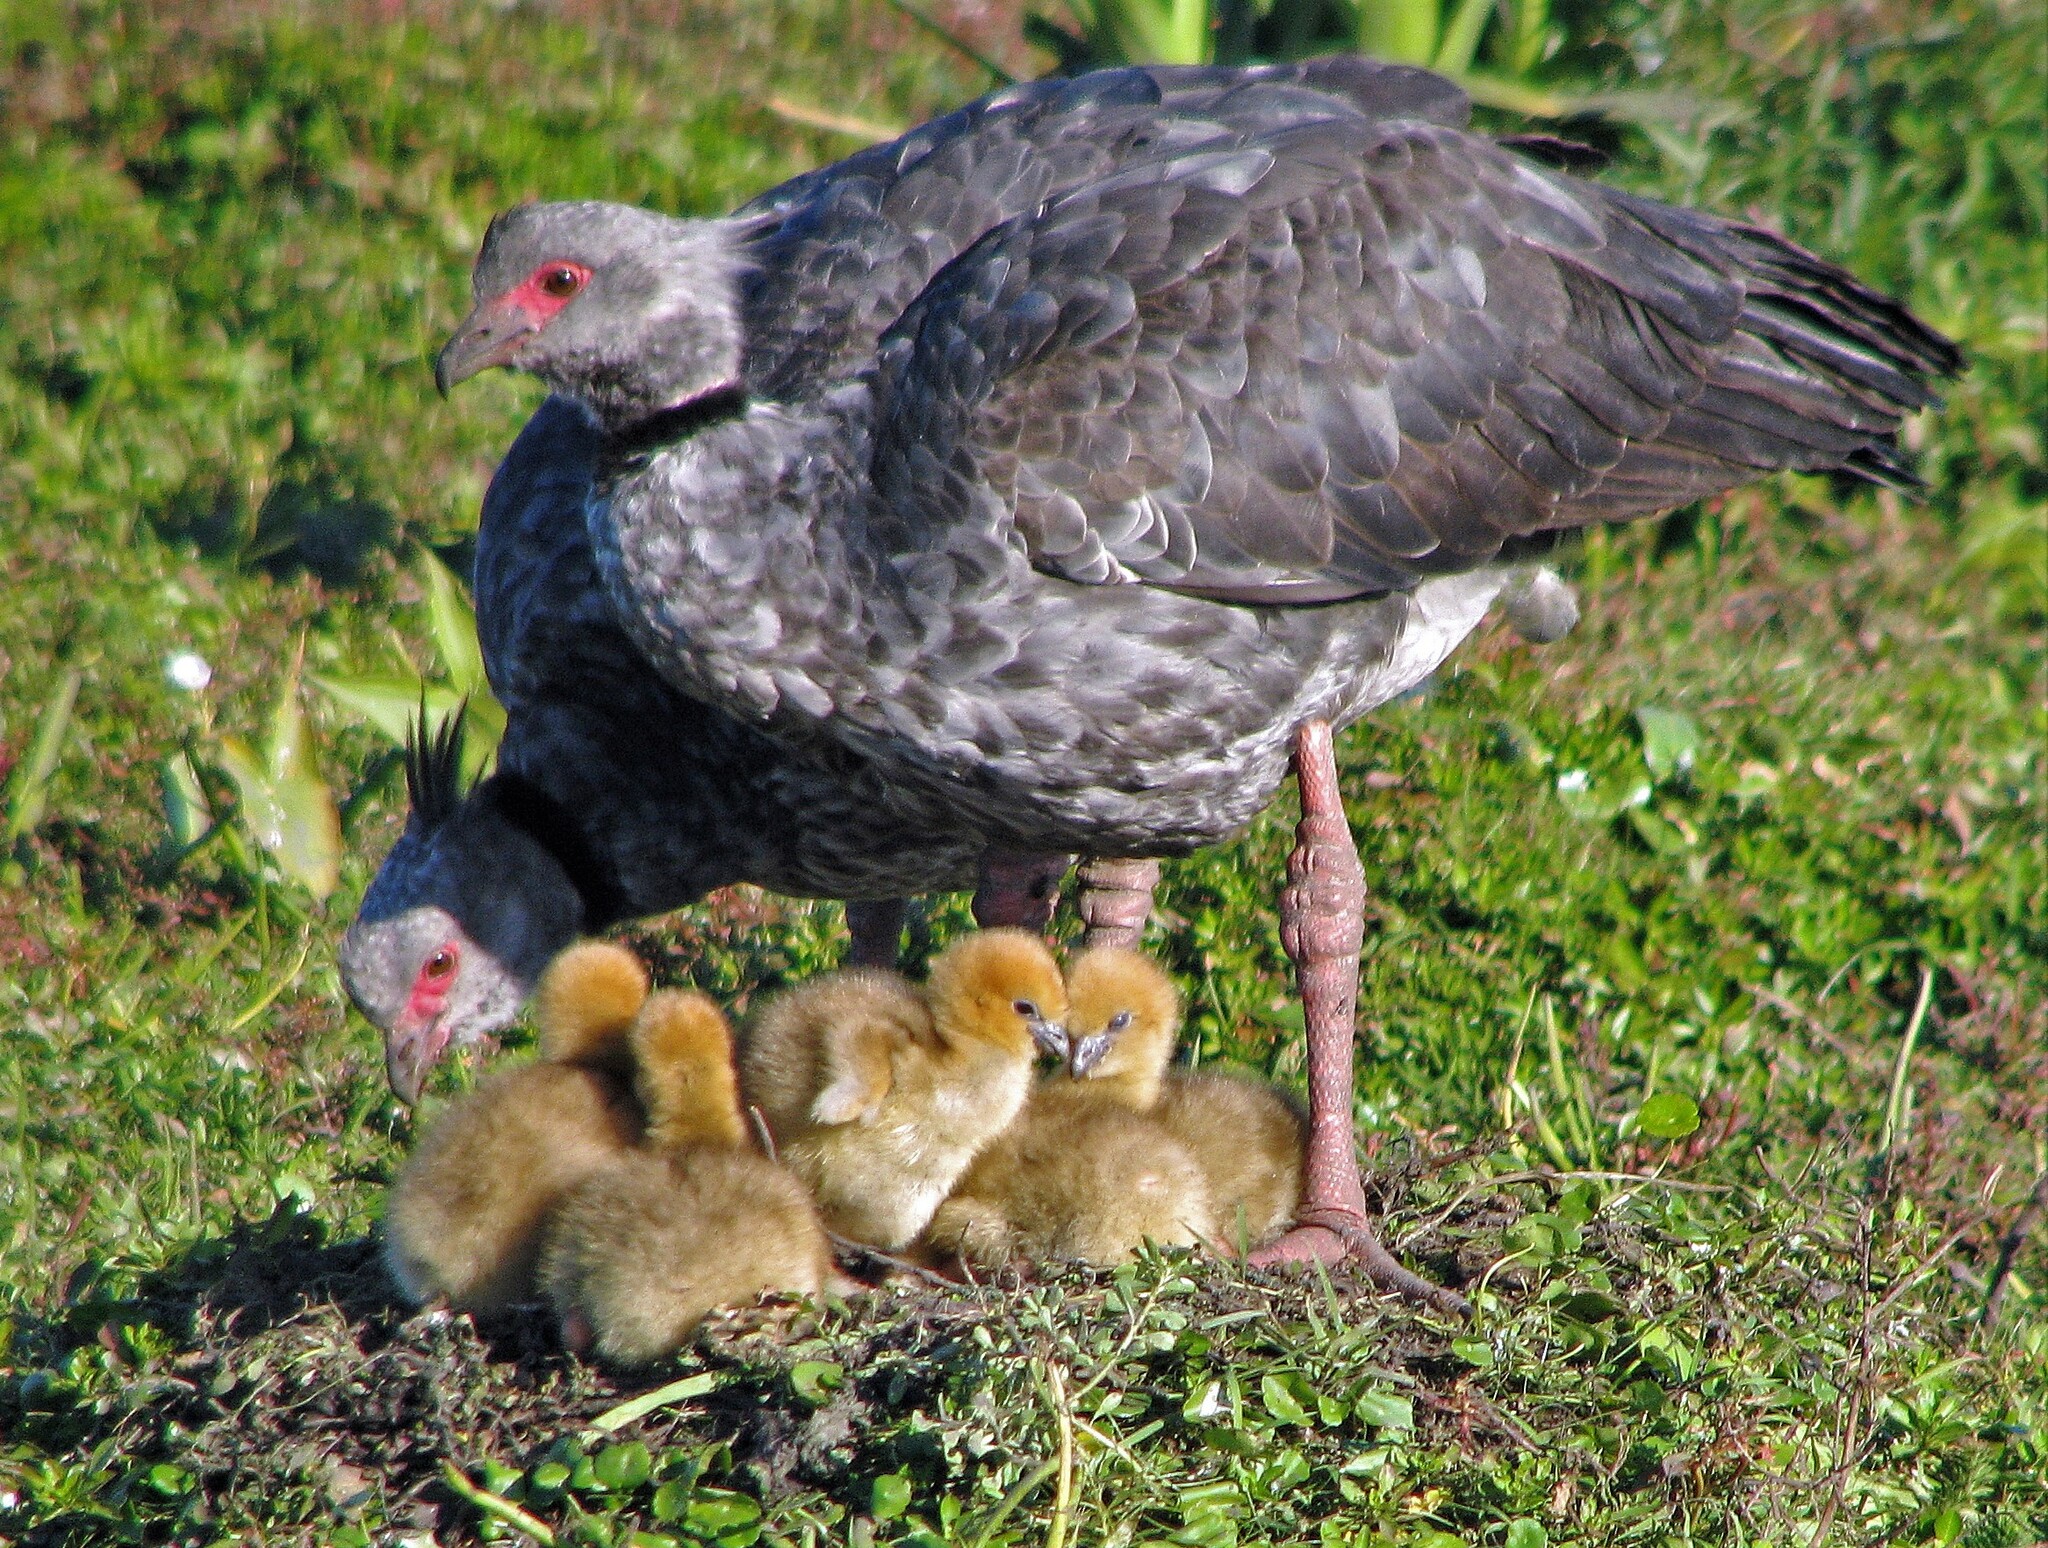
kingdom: Animalia
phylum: Chordata
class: Aves
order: Anseriformes
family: Anhimidae
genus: Chauna
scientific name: Chauna torquata
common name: Southern screamer
